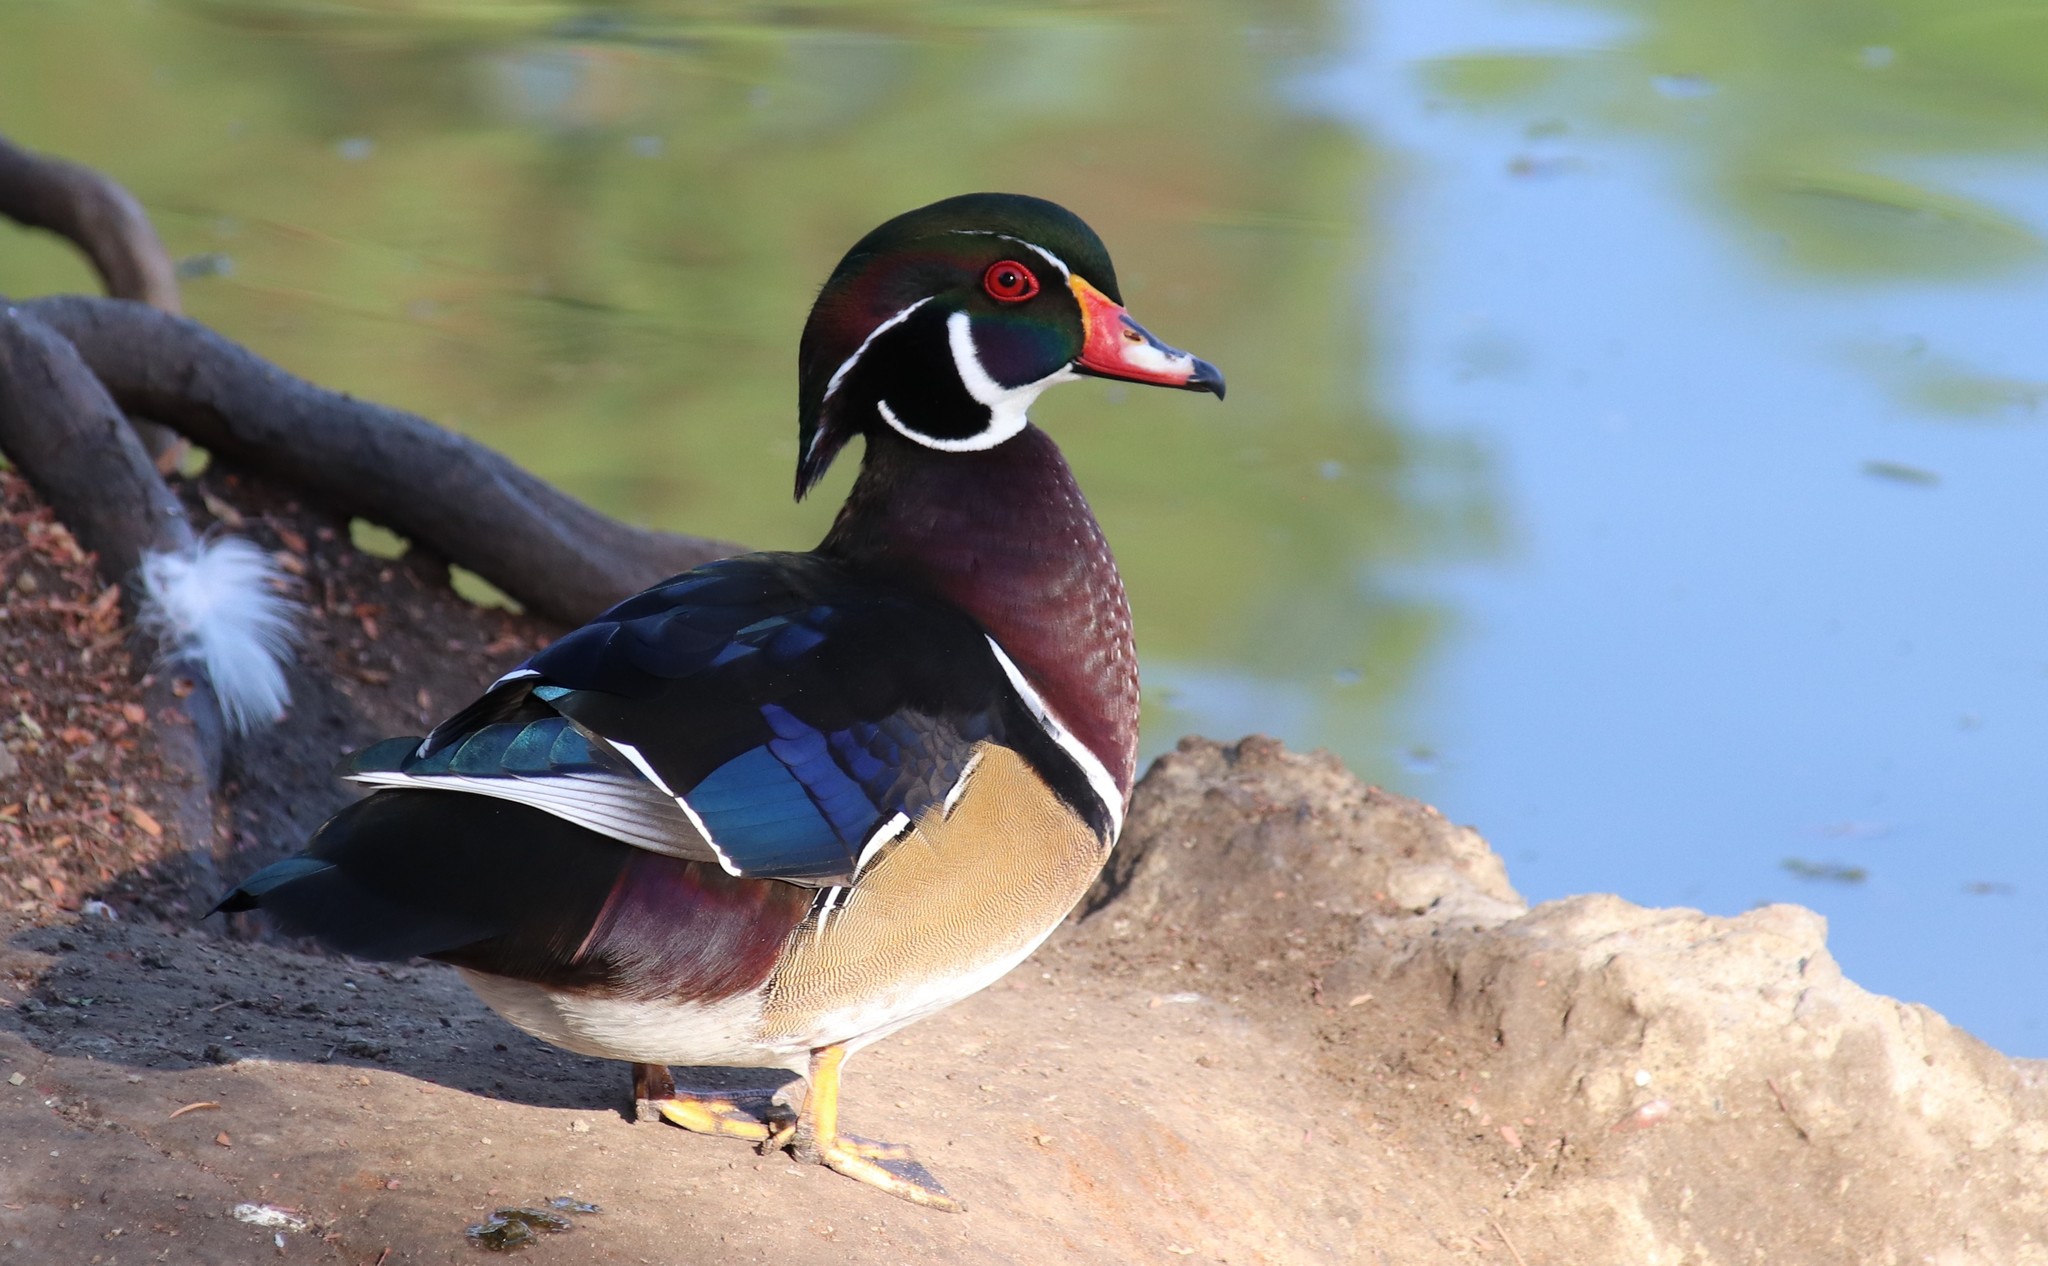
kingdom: Animalia
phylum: Chordata
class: Aves
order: Anseriformes
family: Anatidae
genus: Aix
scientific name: Aix sponsa
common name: Wood duck
